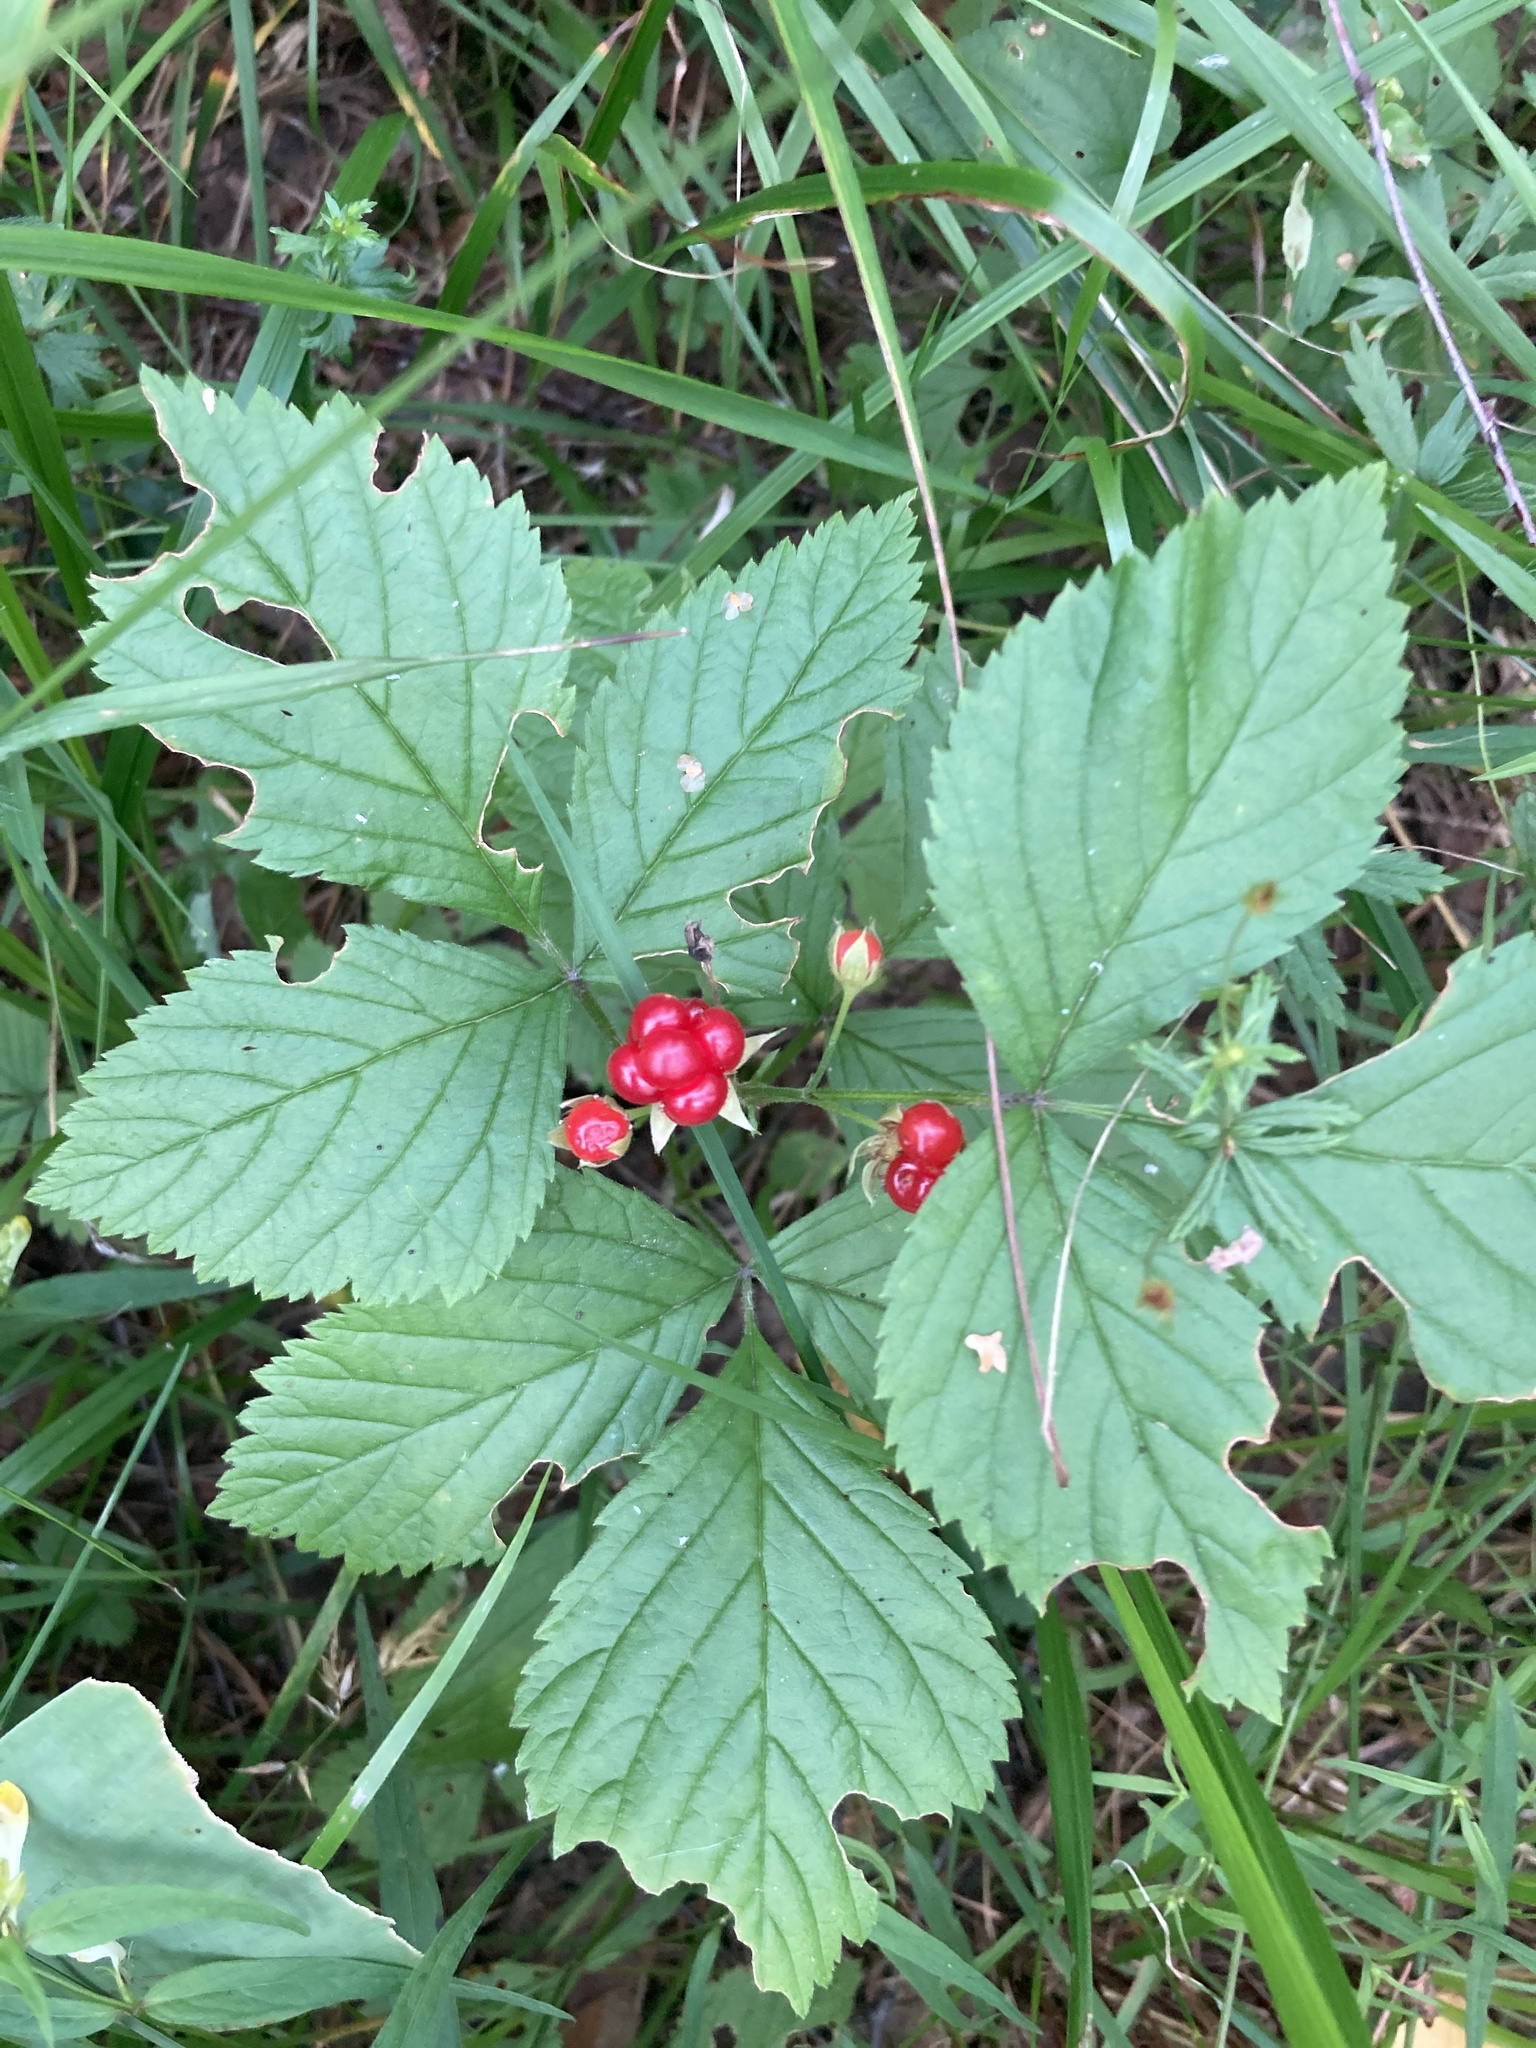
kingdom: Plantae
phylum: Tracheophyta
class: Magnoliopsida
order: Rosales
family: Rosaceae
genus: Rubus
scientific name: Rubus saxatilis
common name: Stone bramble
